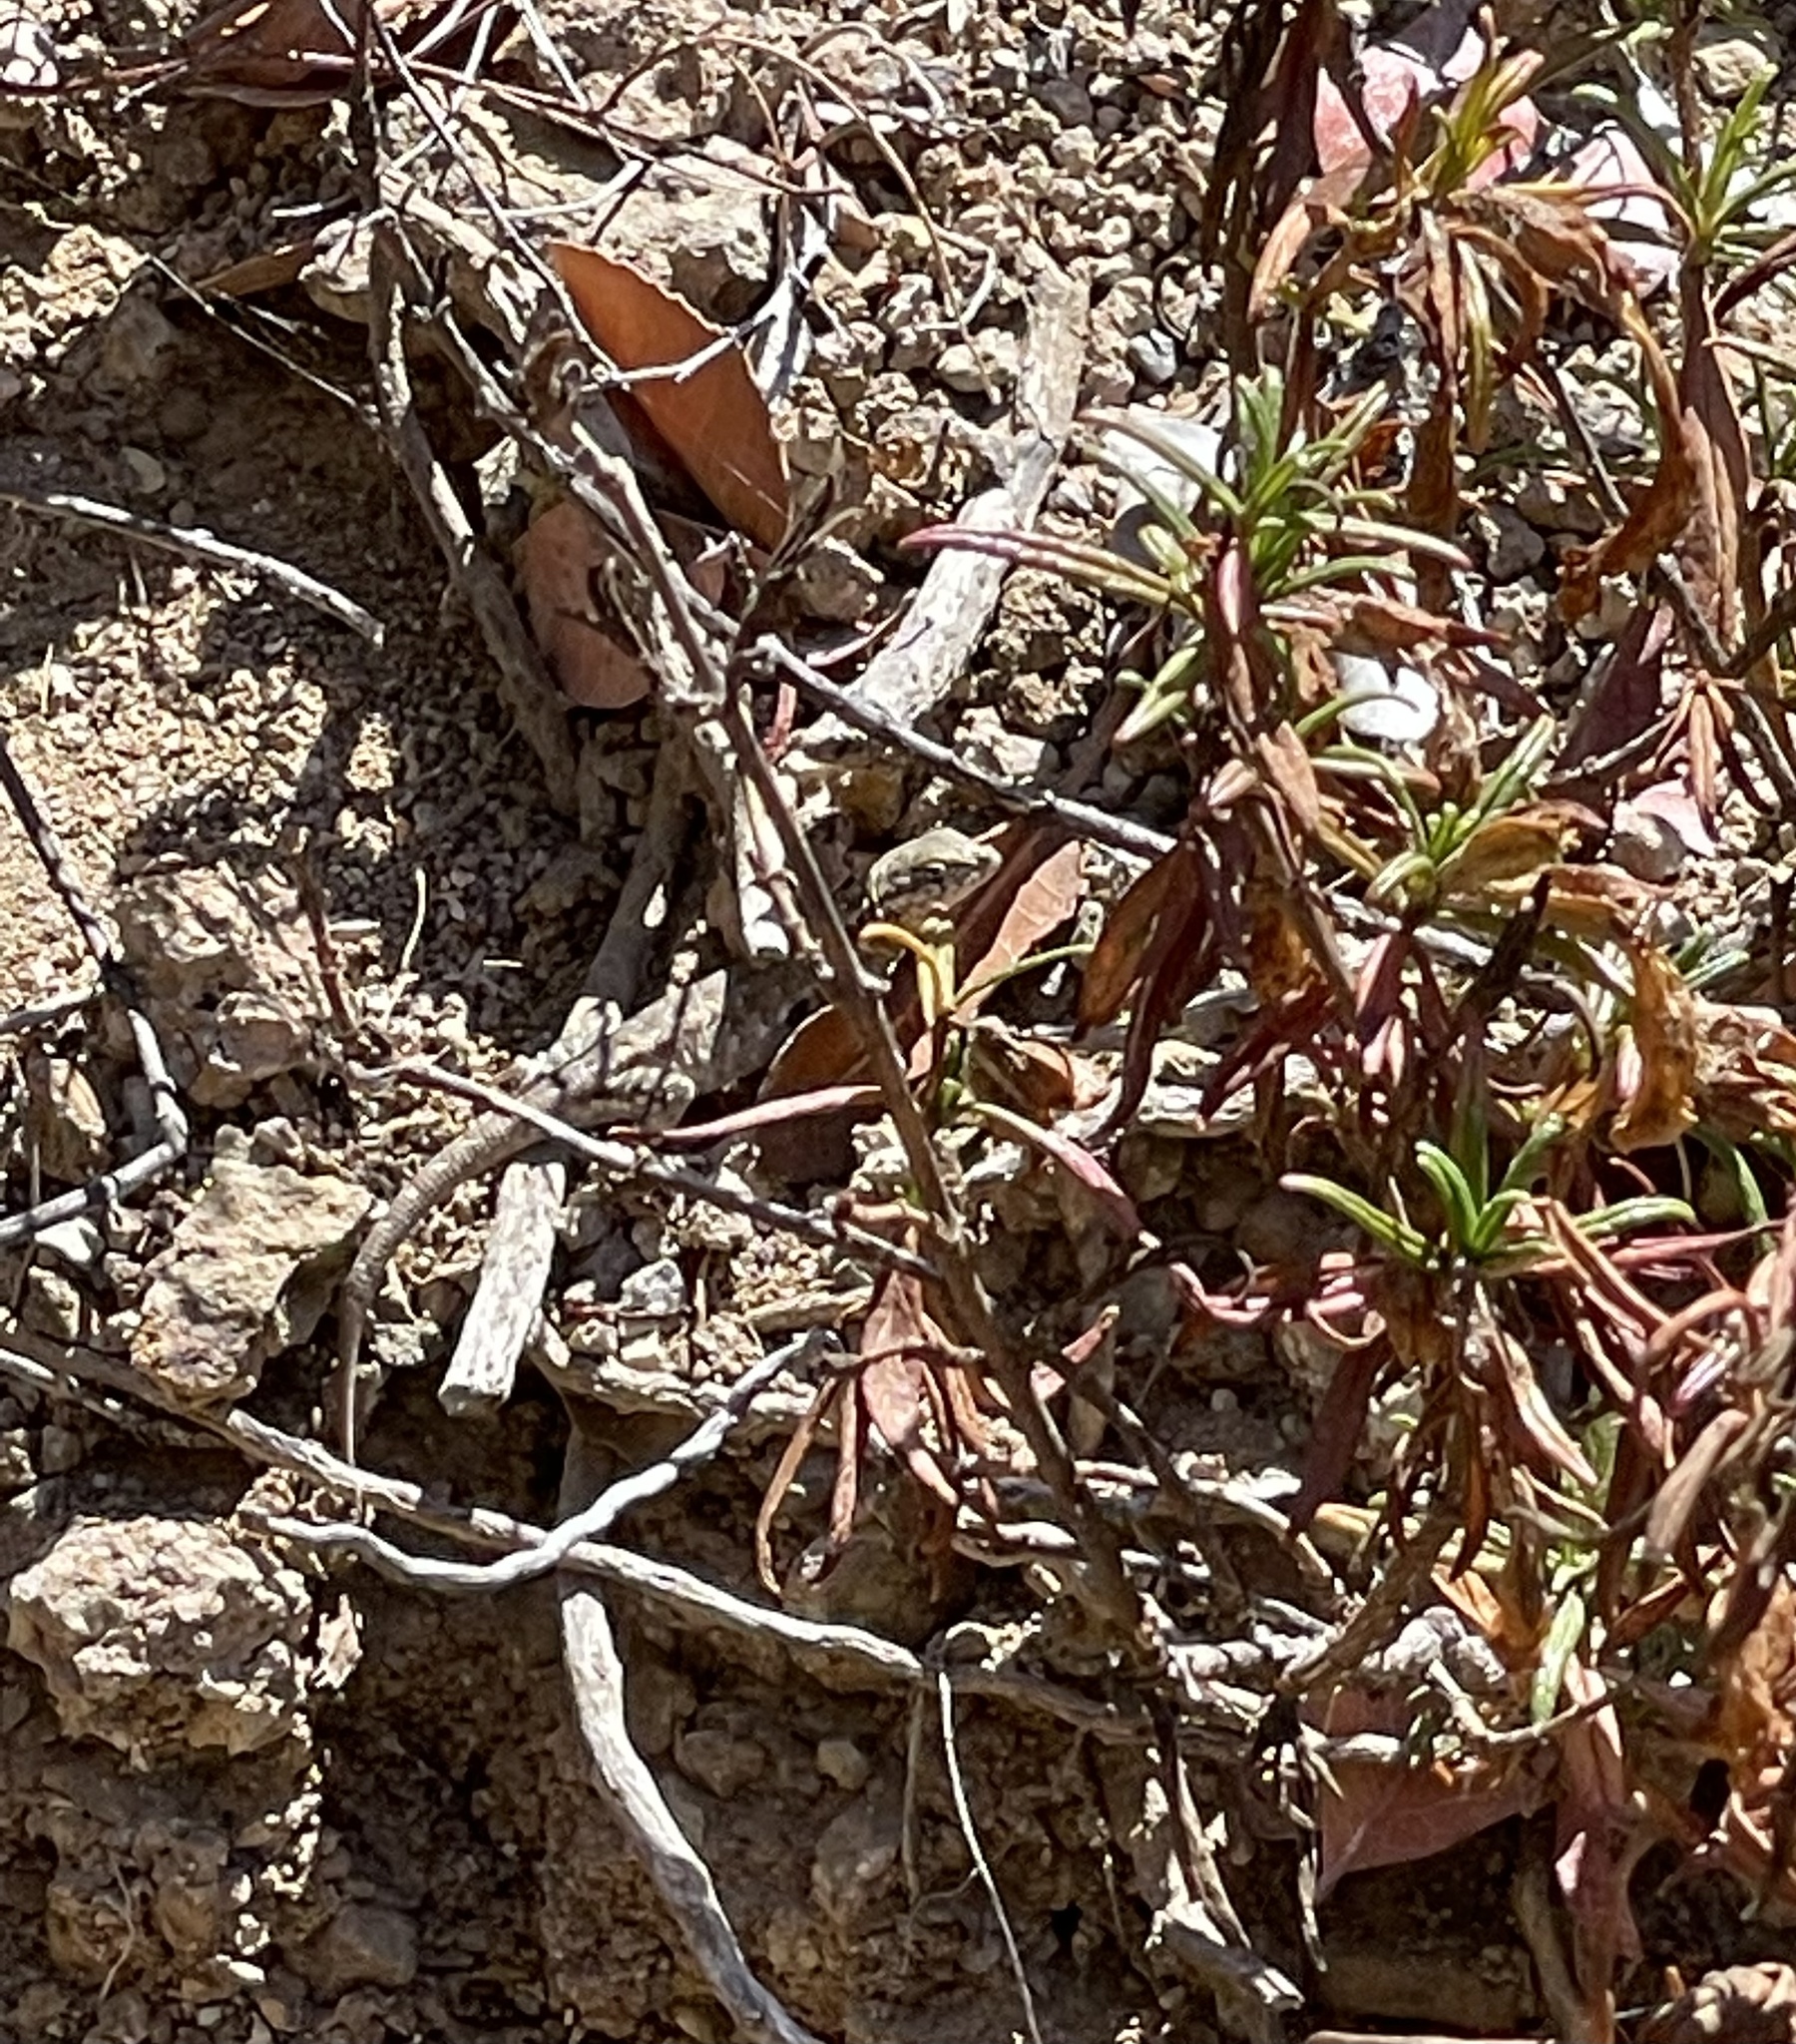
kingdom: Animalia
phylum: Chordata
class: Squamata
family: Phrynosomatidae
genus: Uta
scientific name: Uta stansburiana
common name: Side-blotched lizard
